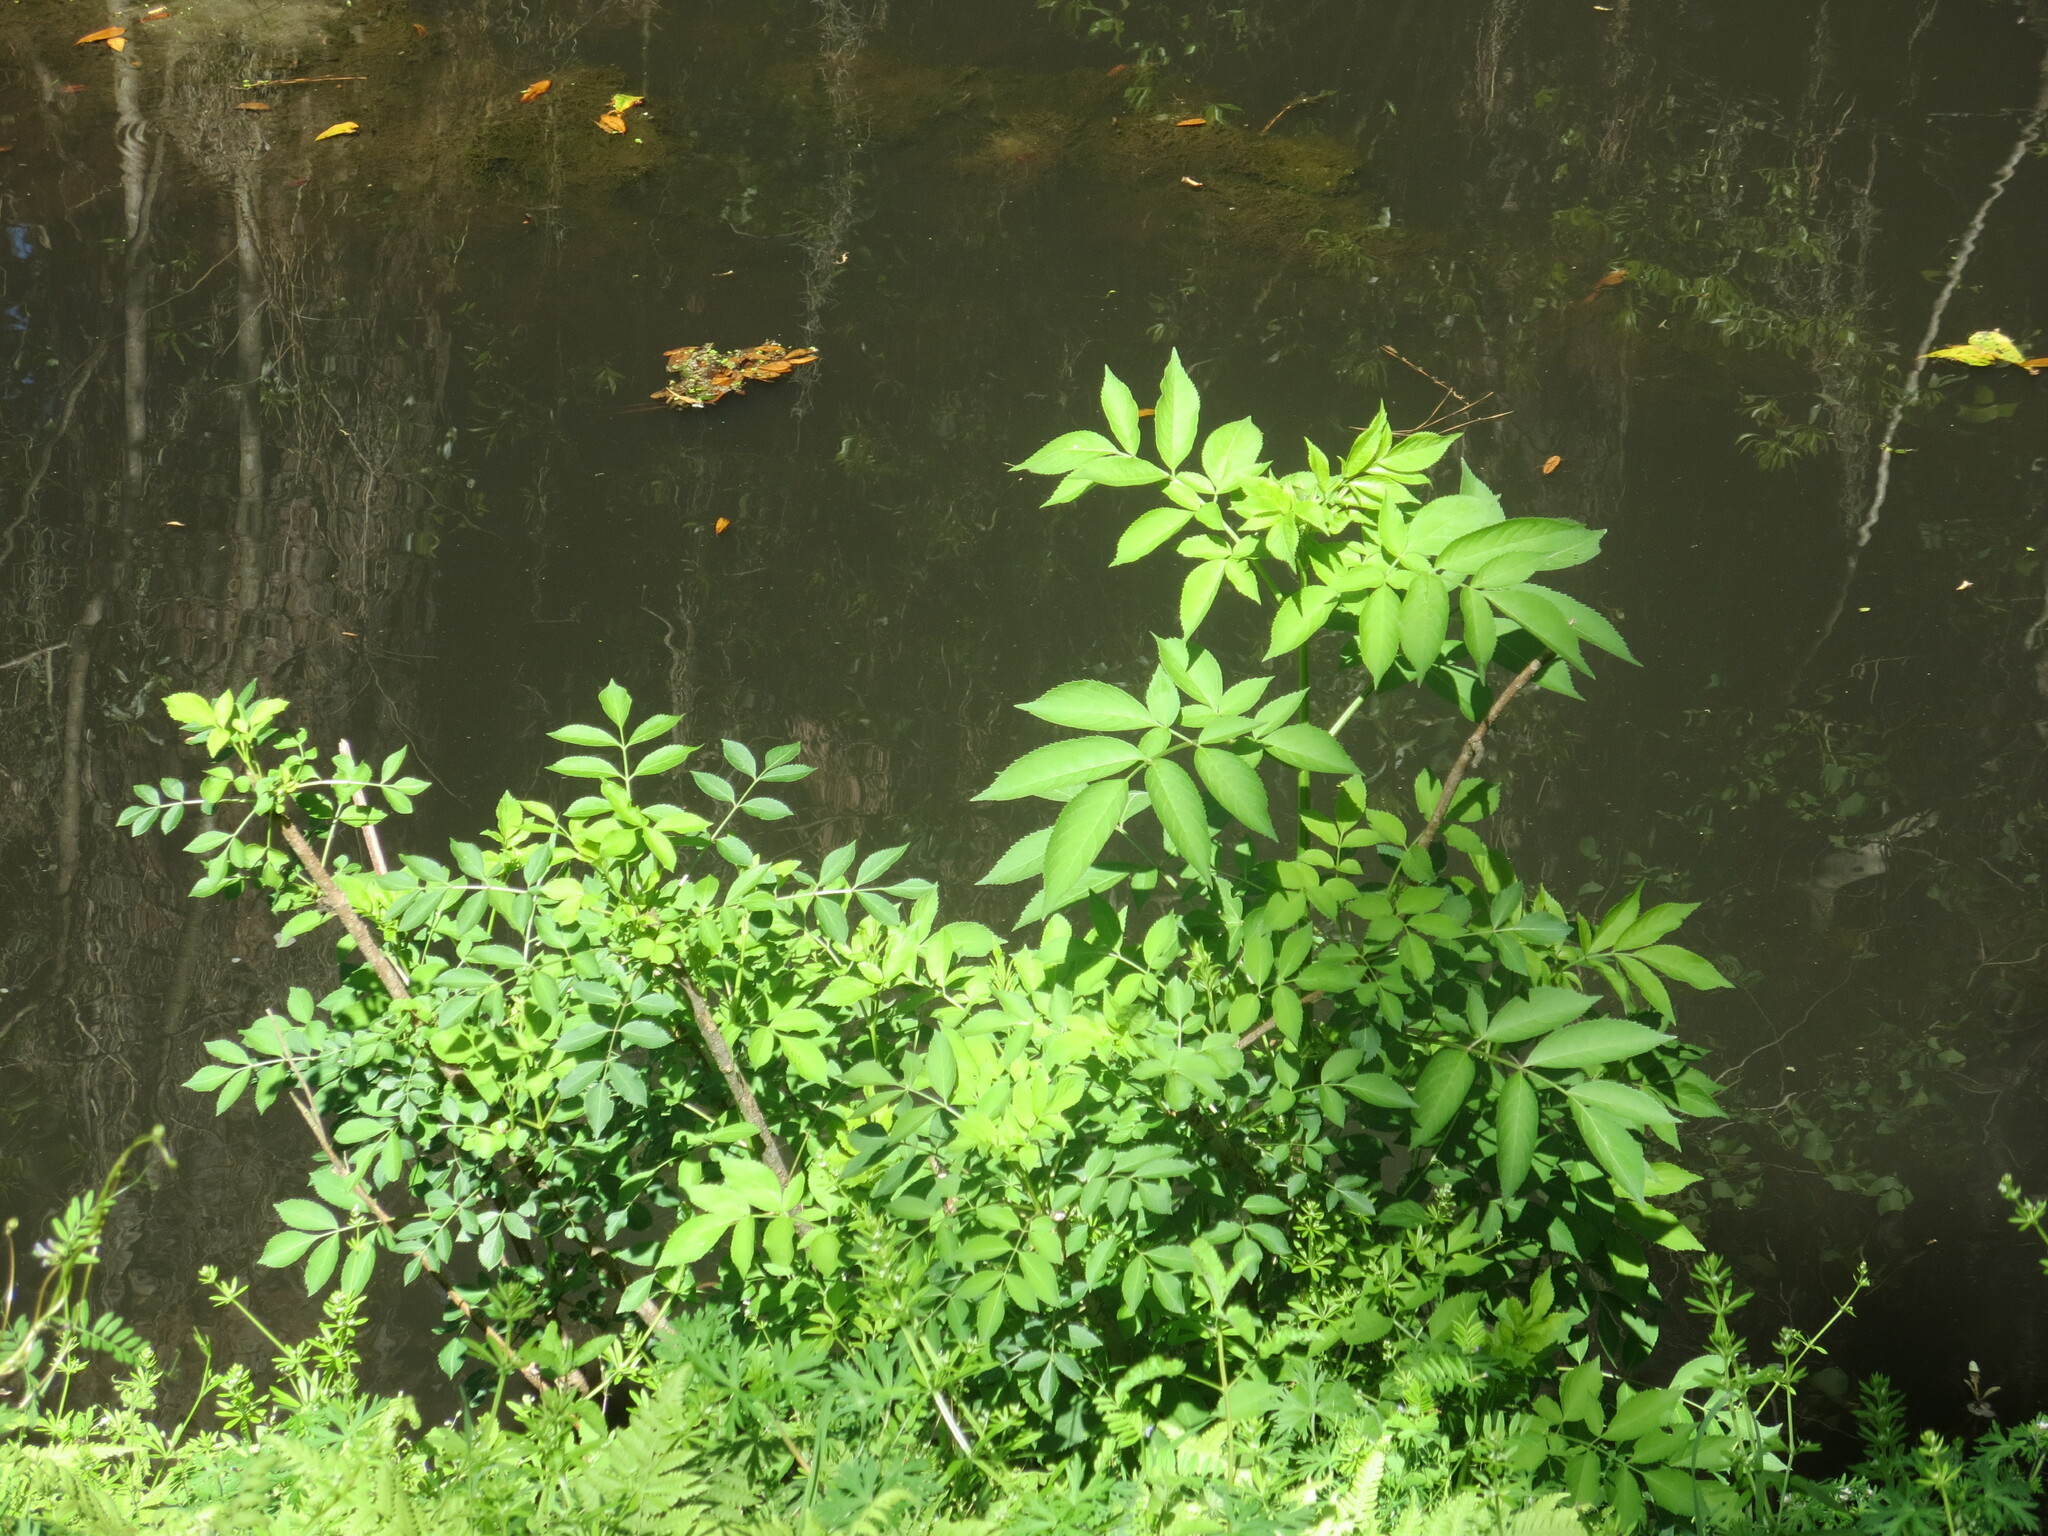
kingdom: Plantae
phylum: Tracheophyta
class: Magnoliopsida
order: Dipsacales
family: Viburnaceae
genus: Sambucus
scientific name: Sambucus canadensis
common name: American elder
